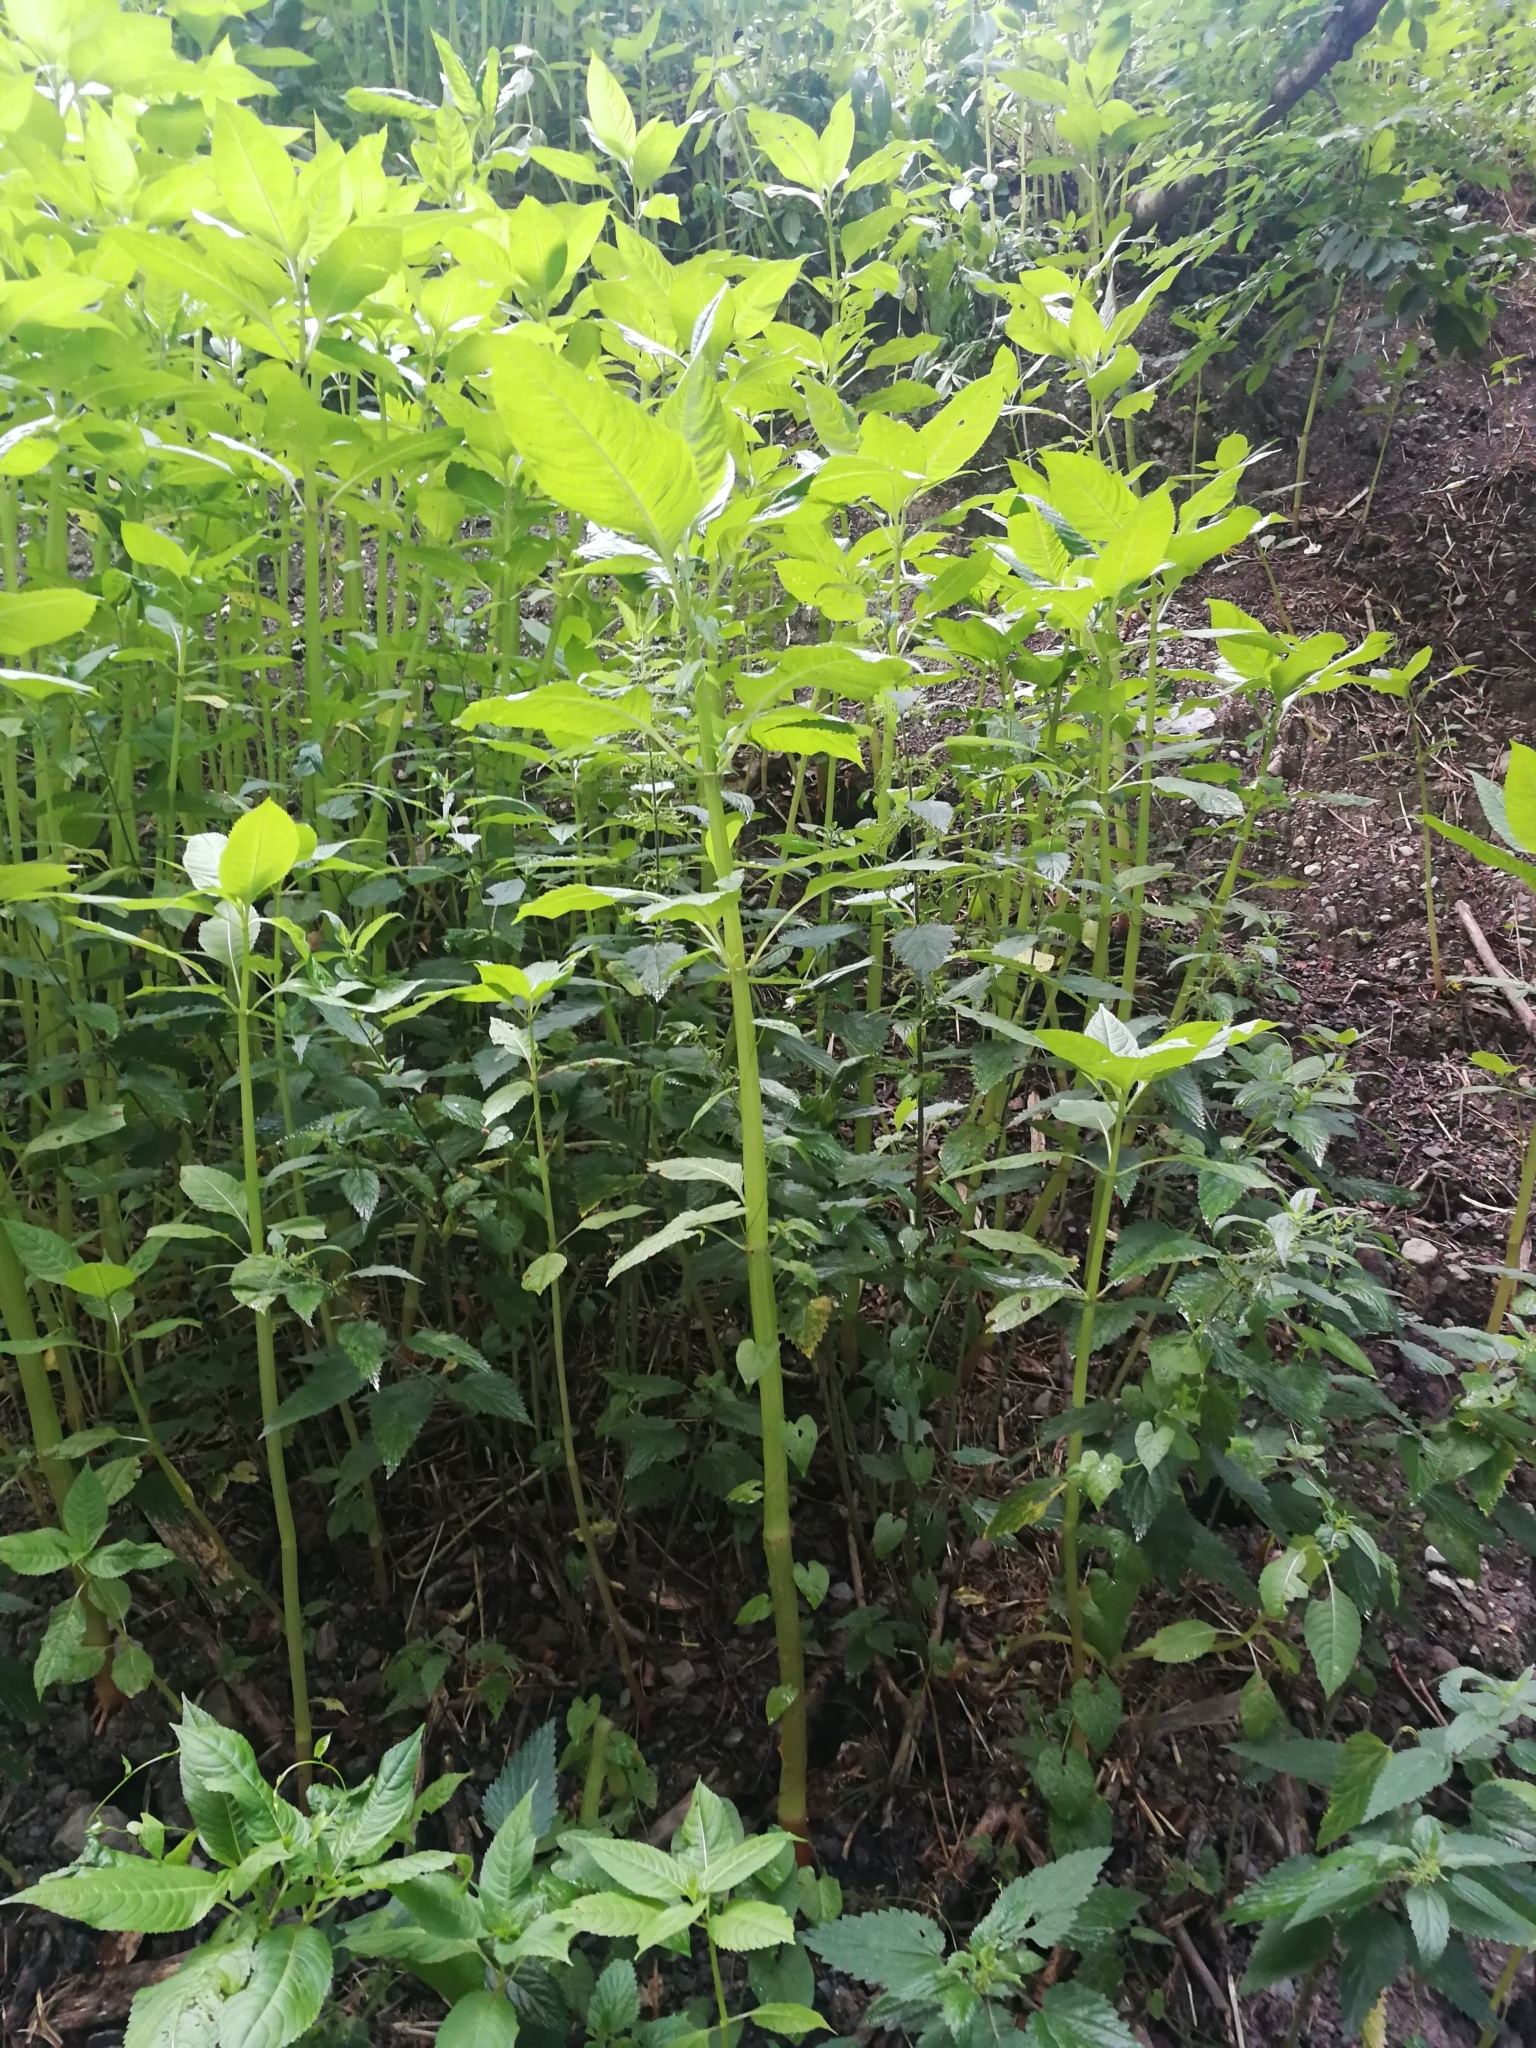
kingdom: Plantae
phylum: Tracheophyta
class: Magnoliopsida
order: Ericales
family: Balsaminaceae
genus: Impatiens
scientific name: Impatiens glandulifera
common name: Himalayan balsam
